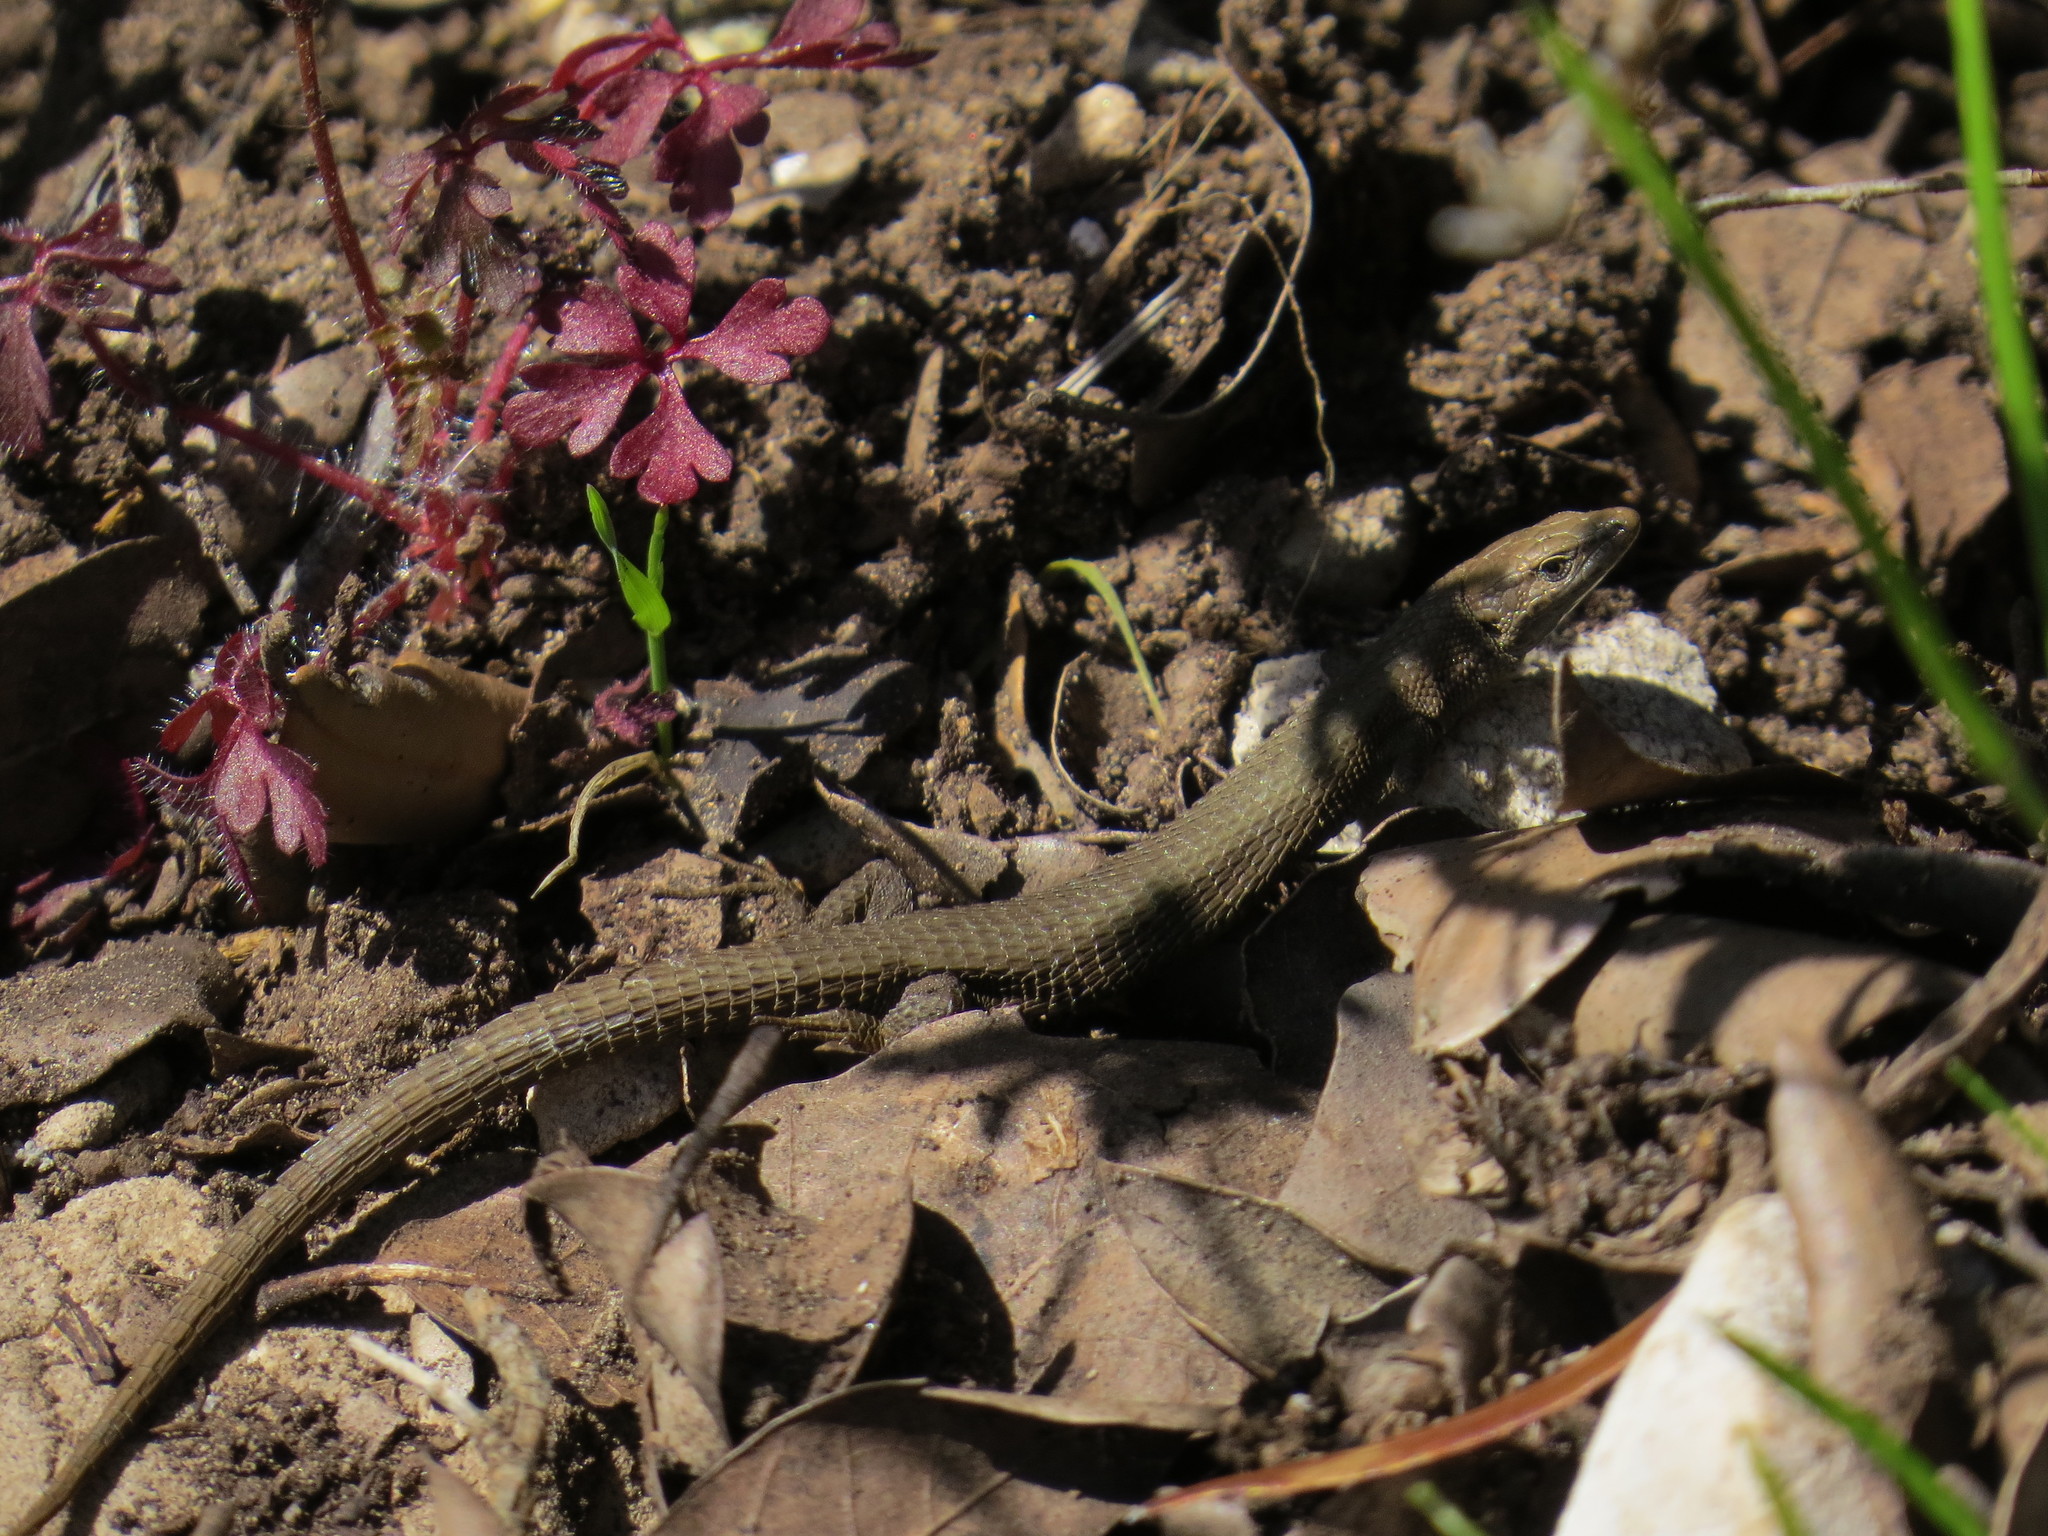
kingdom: Animalia
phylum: Chordata
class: Squamata
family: Lacertidae
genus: Algyroides
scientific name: Algyroides fitzingeri
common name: Fitzinger's algyroides
